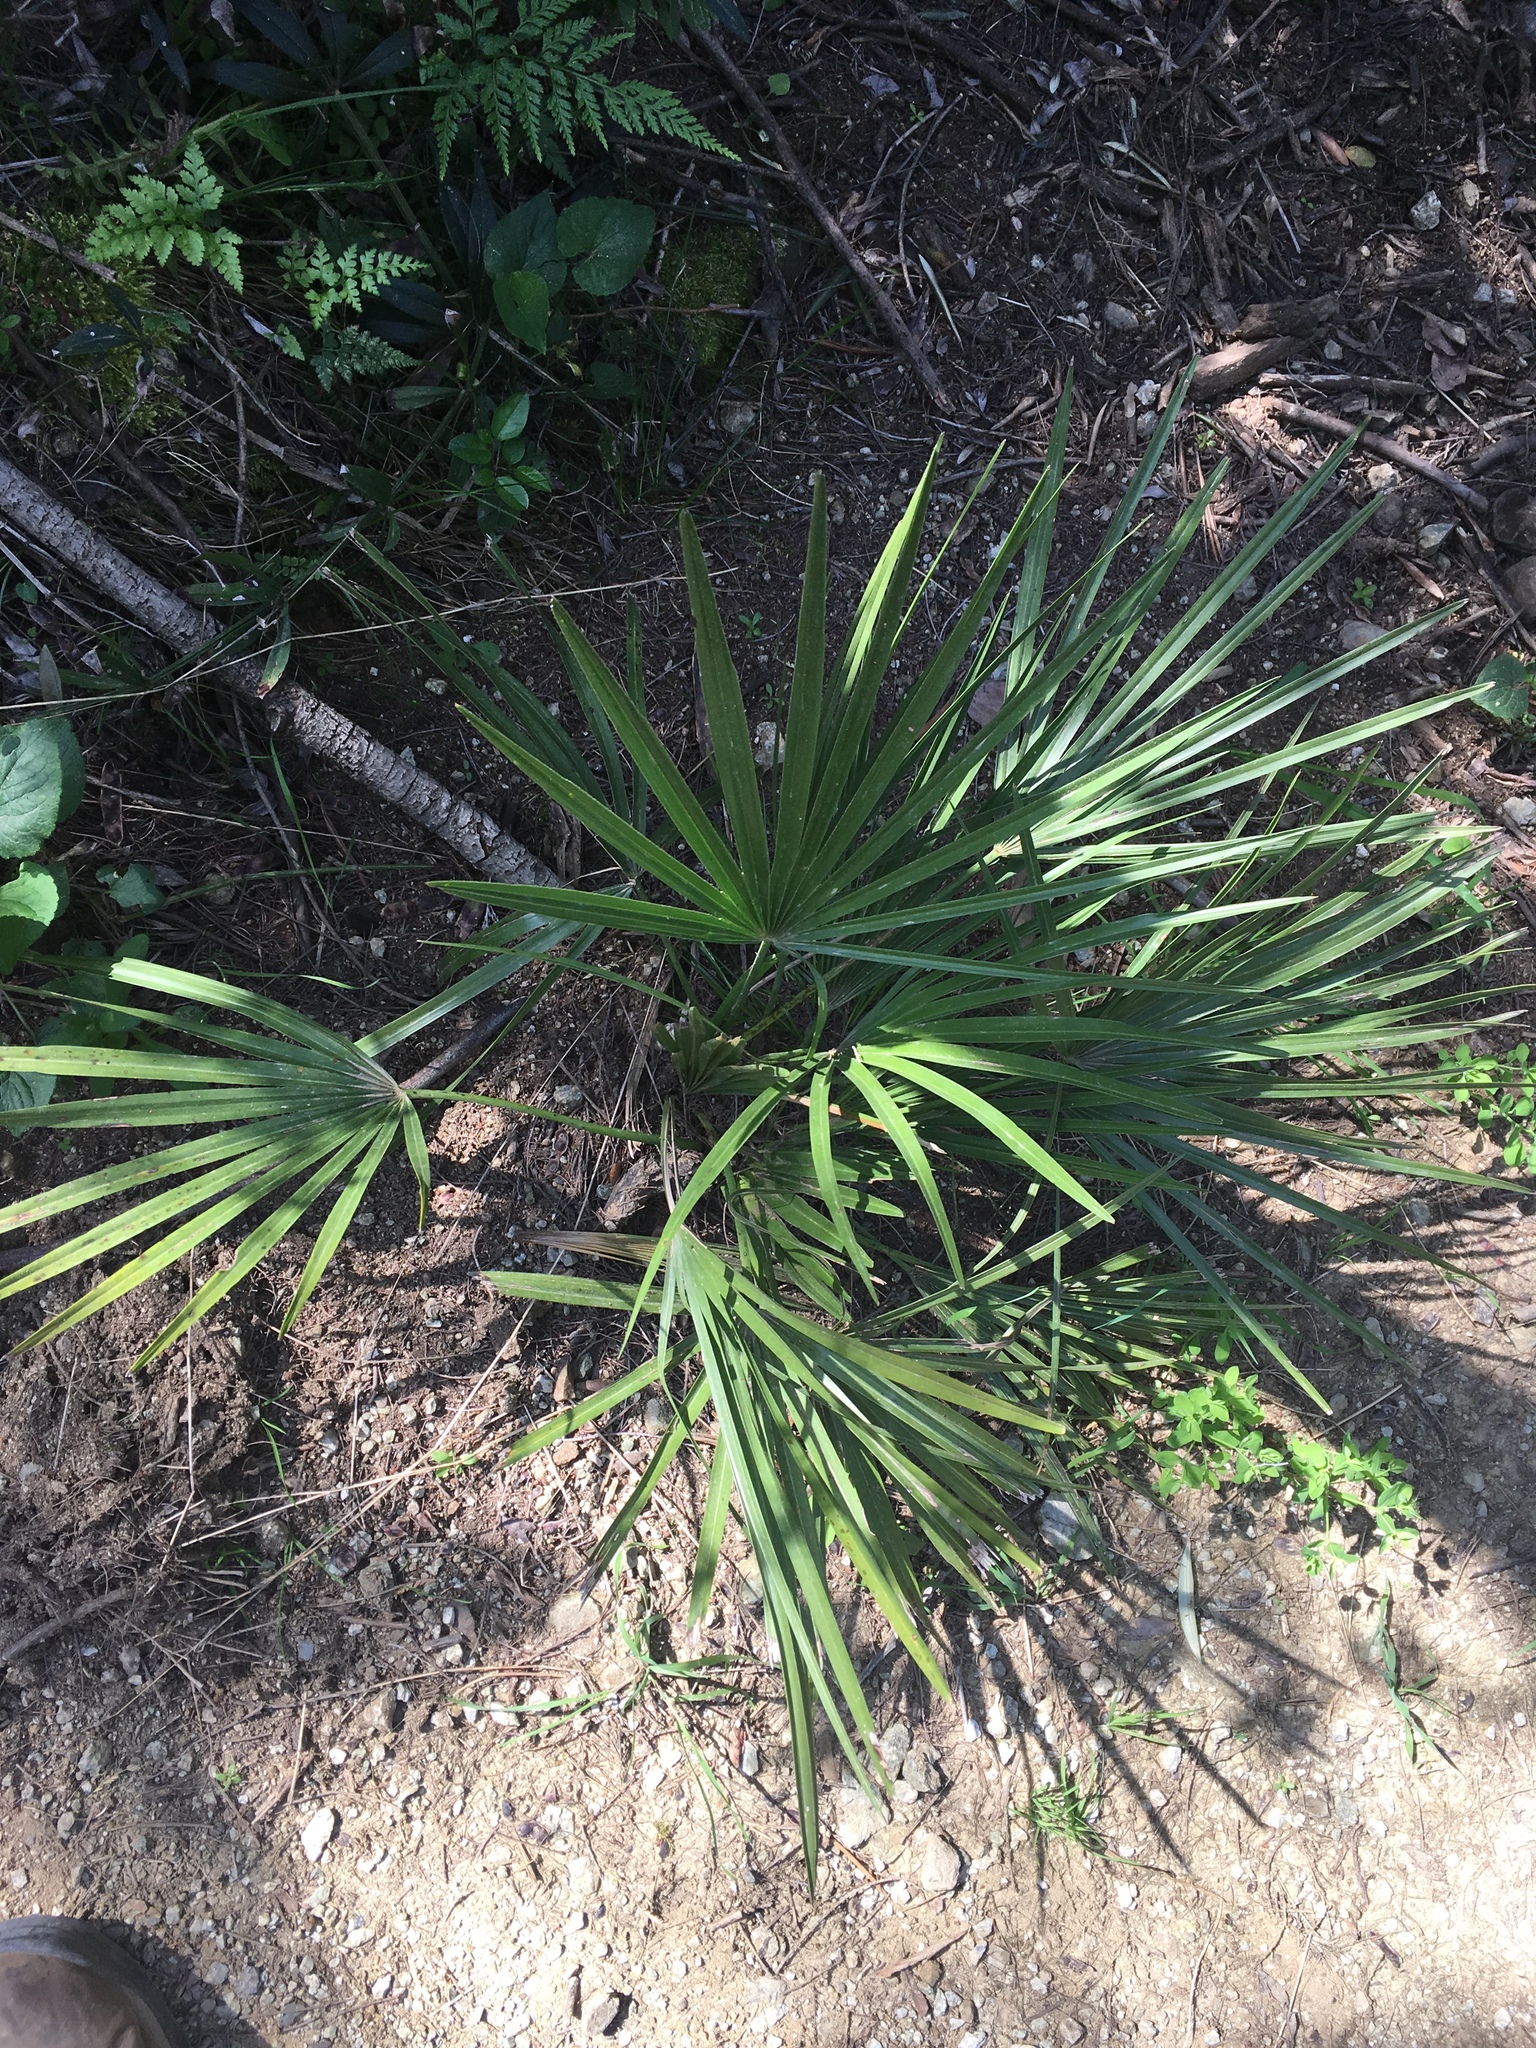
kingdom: Plantae
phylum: Tracheophyta
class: Liliopsida
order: Arecales
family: Arecaceae
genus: Chamaerops
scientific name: Chamaerops humilis
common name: Dwarf fan palm
